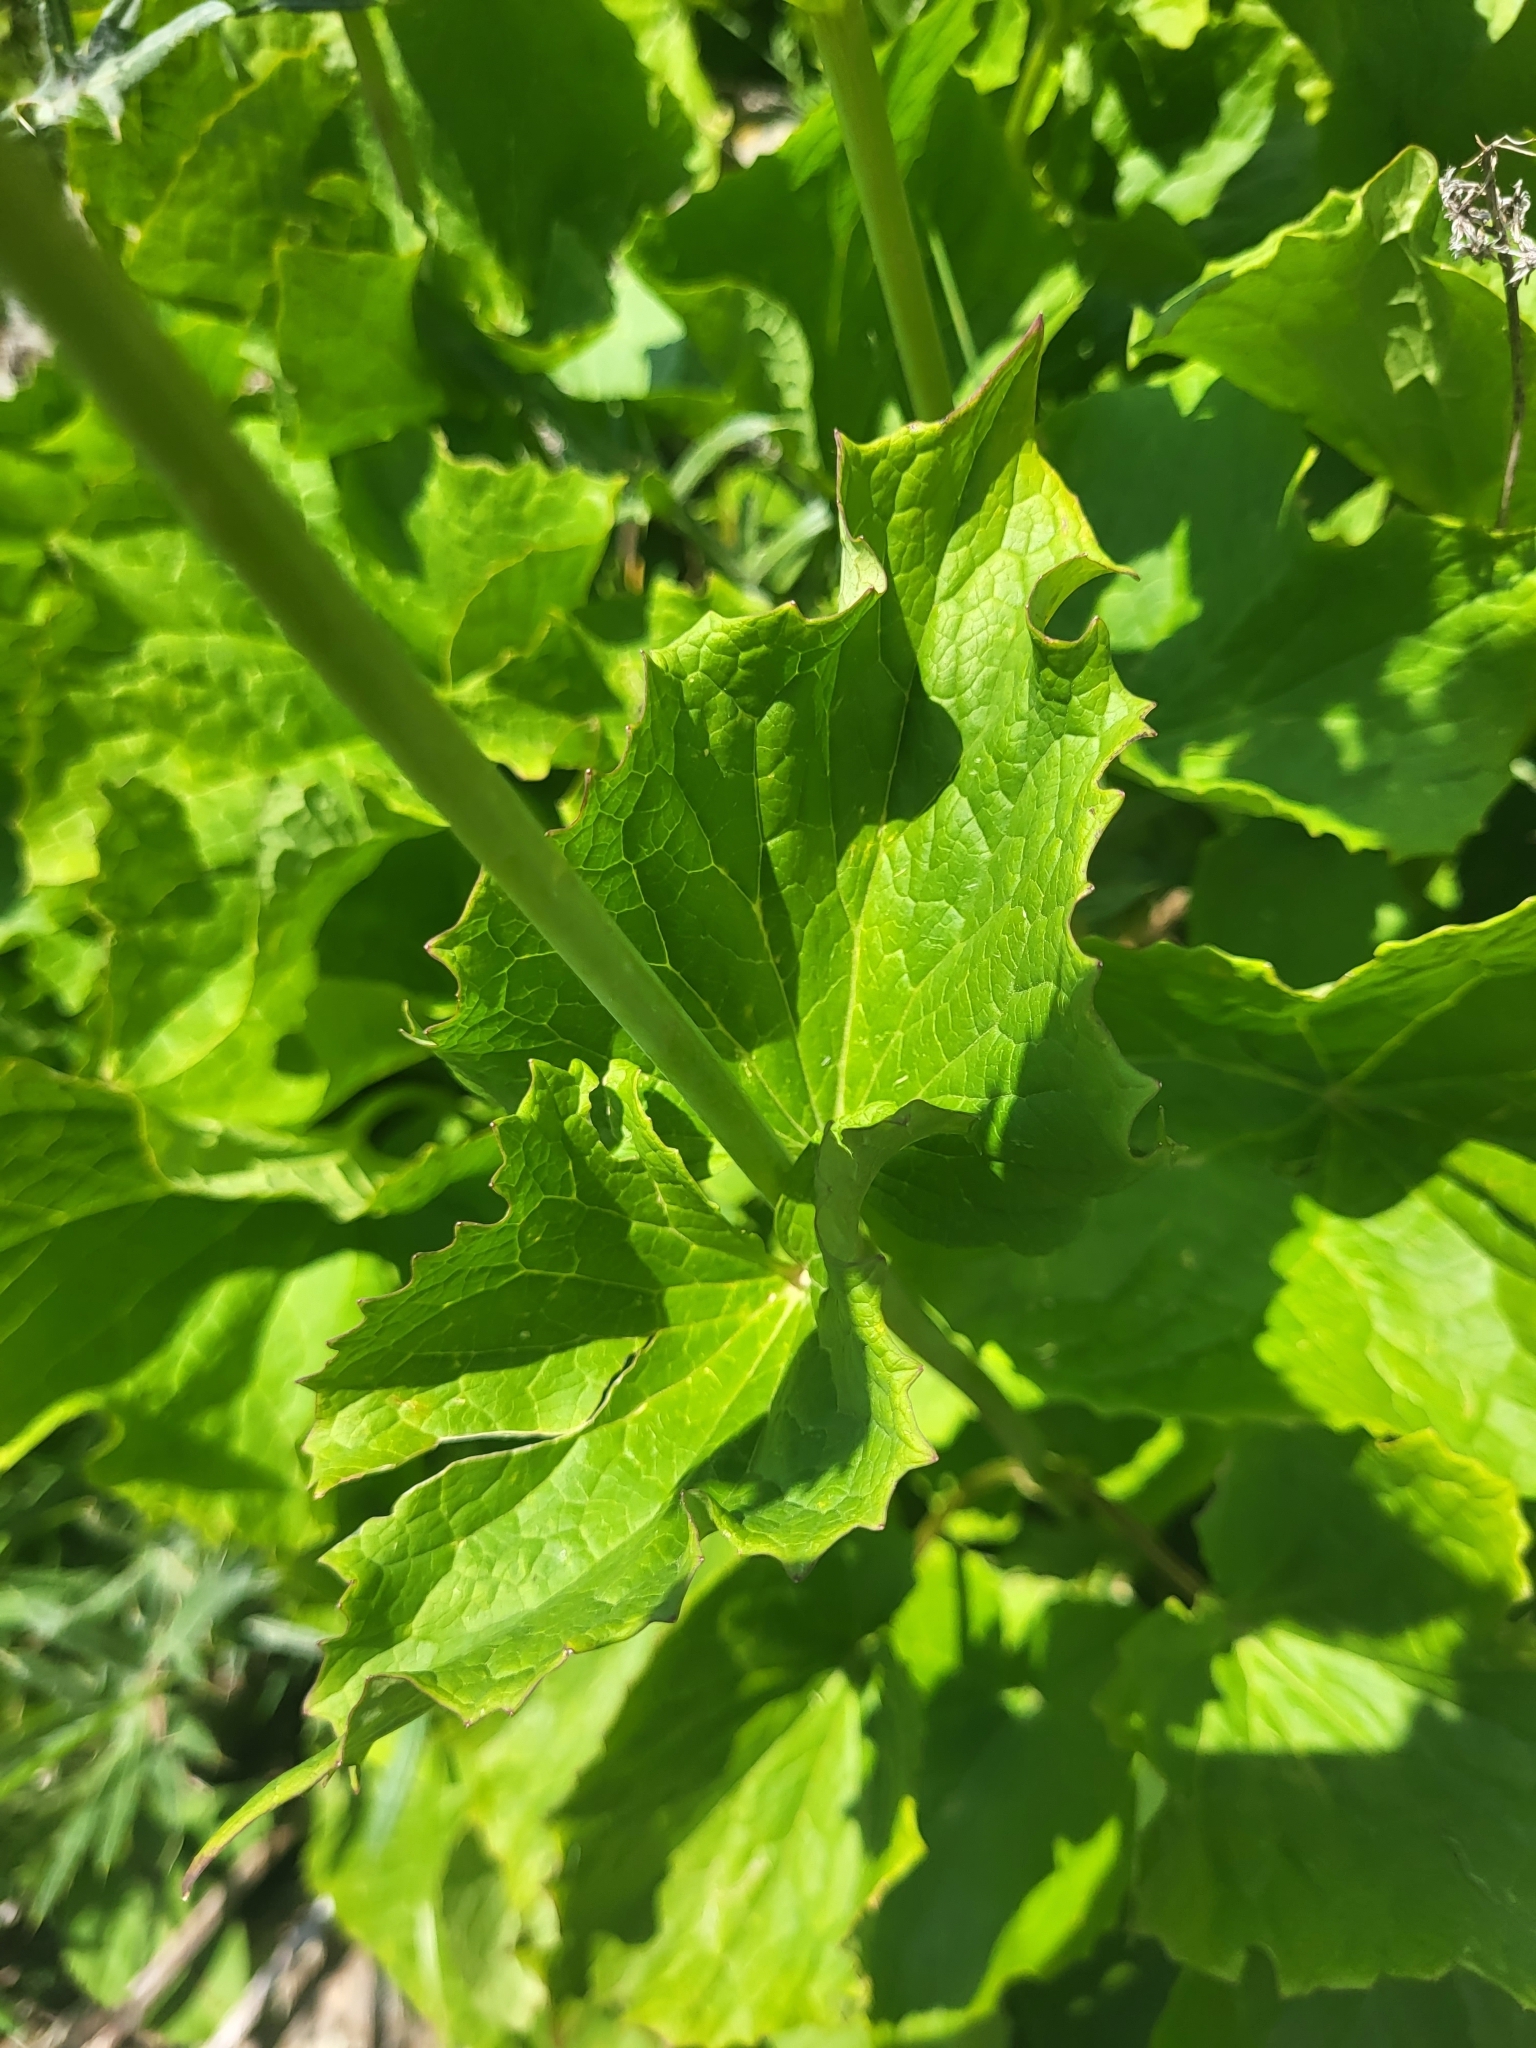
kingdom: Plantae
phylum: Tracheophyta
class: Magnoliopsida
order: Dipsacales
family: Caprifoliaceae
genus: Valeriana
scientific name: Valeriana alliariifolia
